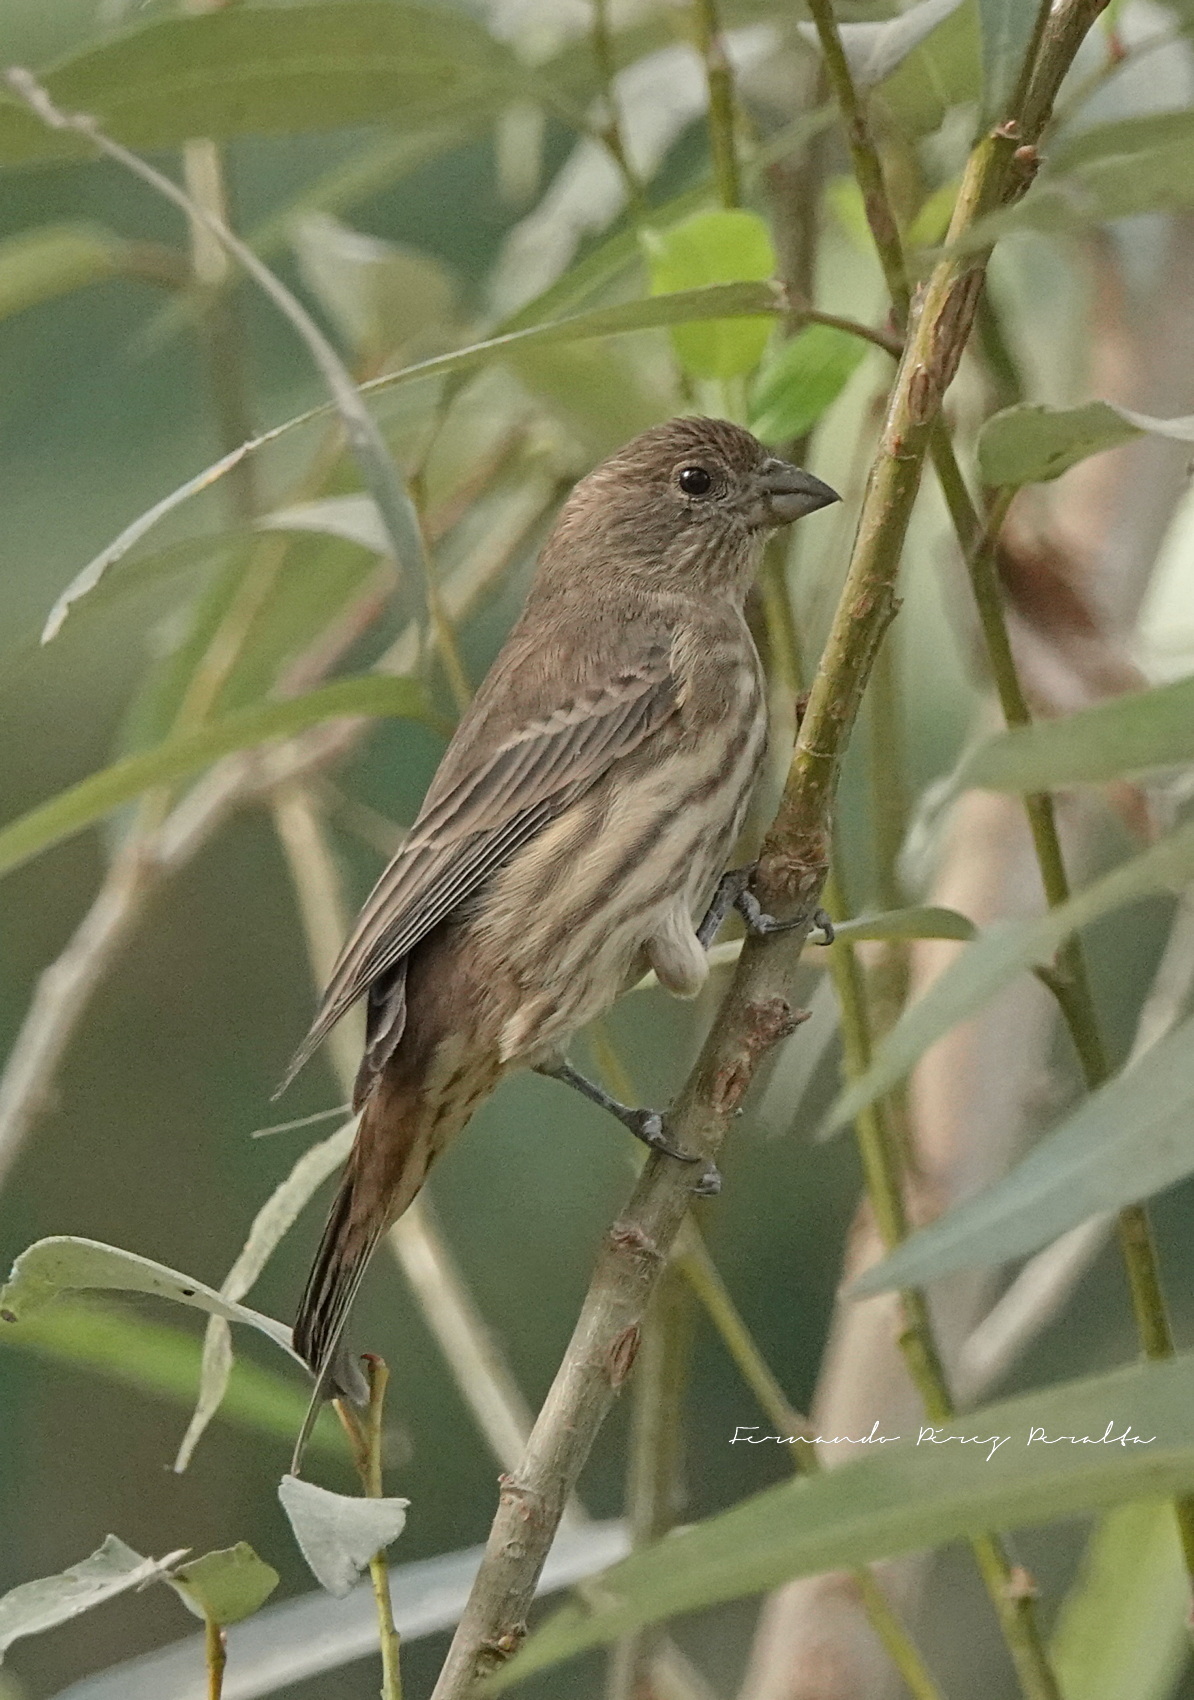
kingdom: Animalia
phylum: Chordata
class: Aves
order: Passeriformes
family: Fringillidae
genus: Haemorhous
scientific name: Haemorhous mexicanus
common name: House finch
